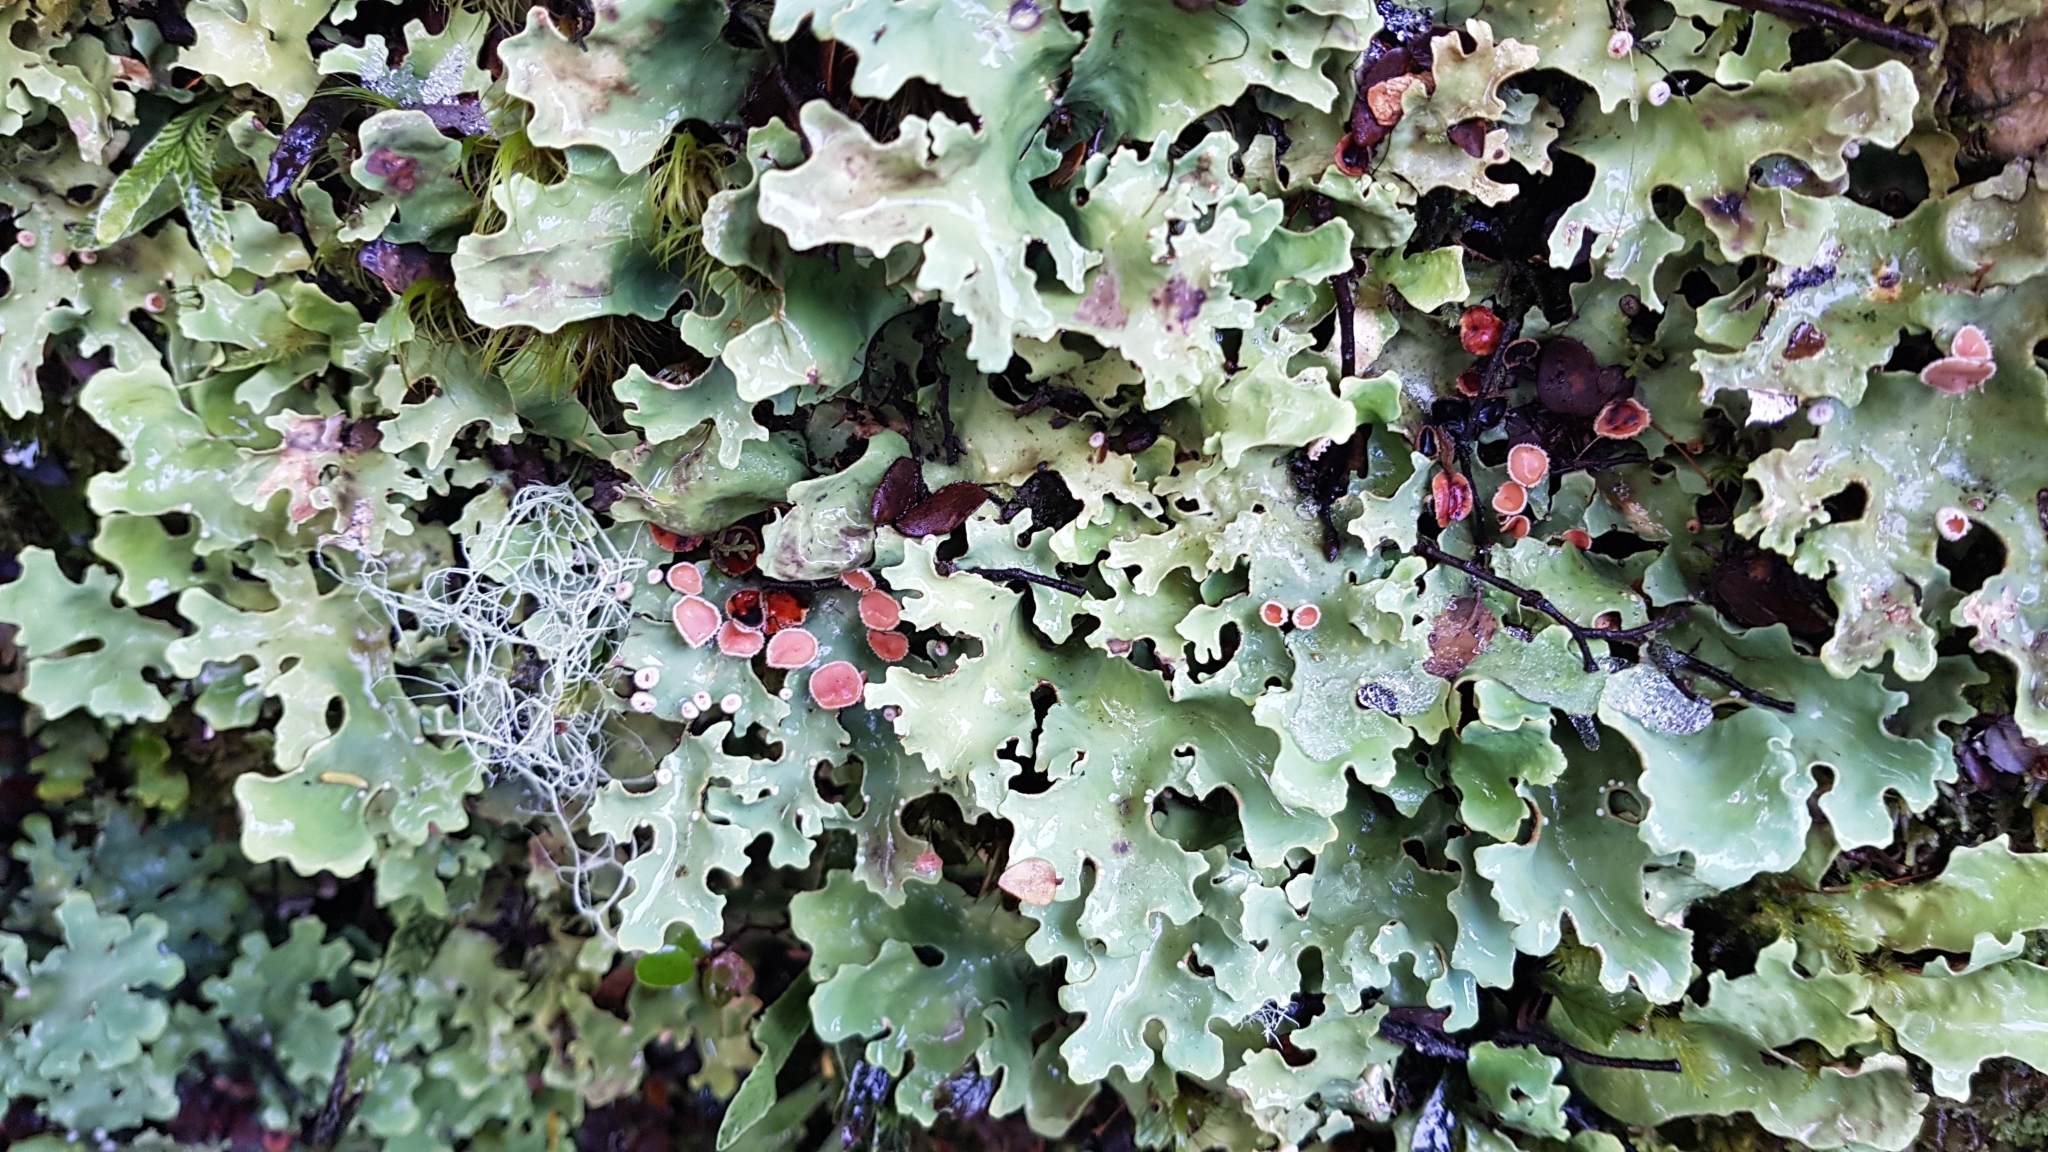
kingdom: Fungi
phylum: Ascomycota
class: Lecanoromycetes
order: Peltigerales
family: Lobariaceae
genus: Pseudocyphellaria
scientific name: Pseudocyphellaria homeophylla
